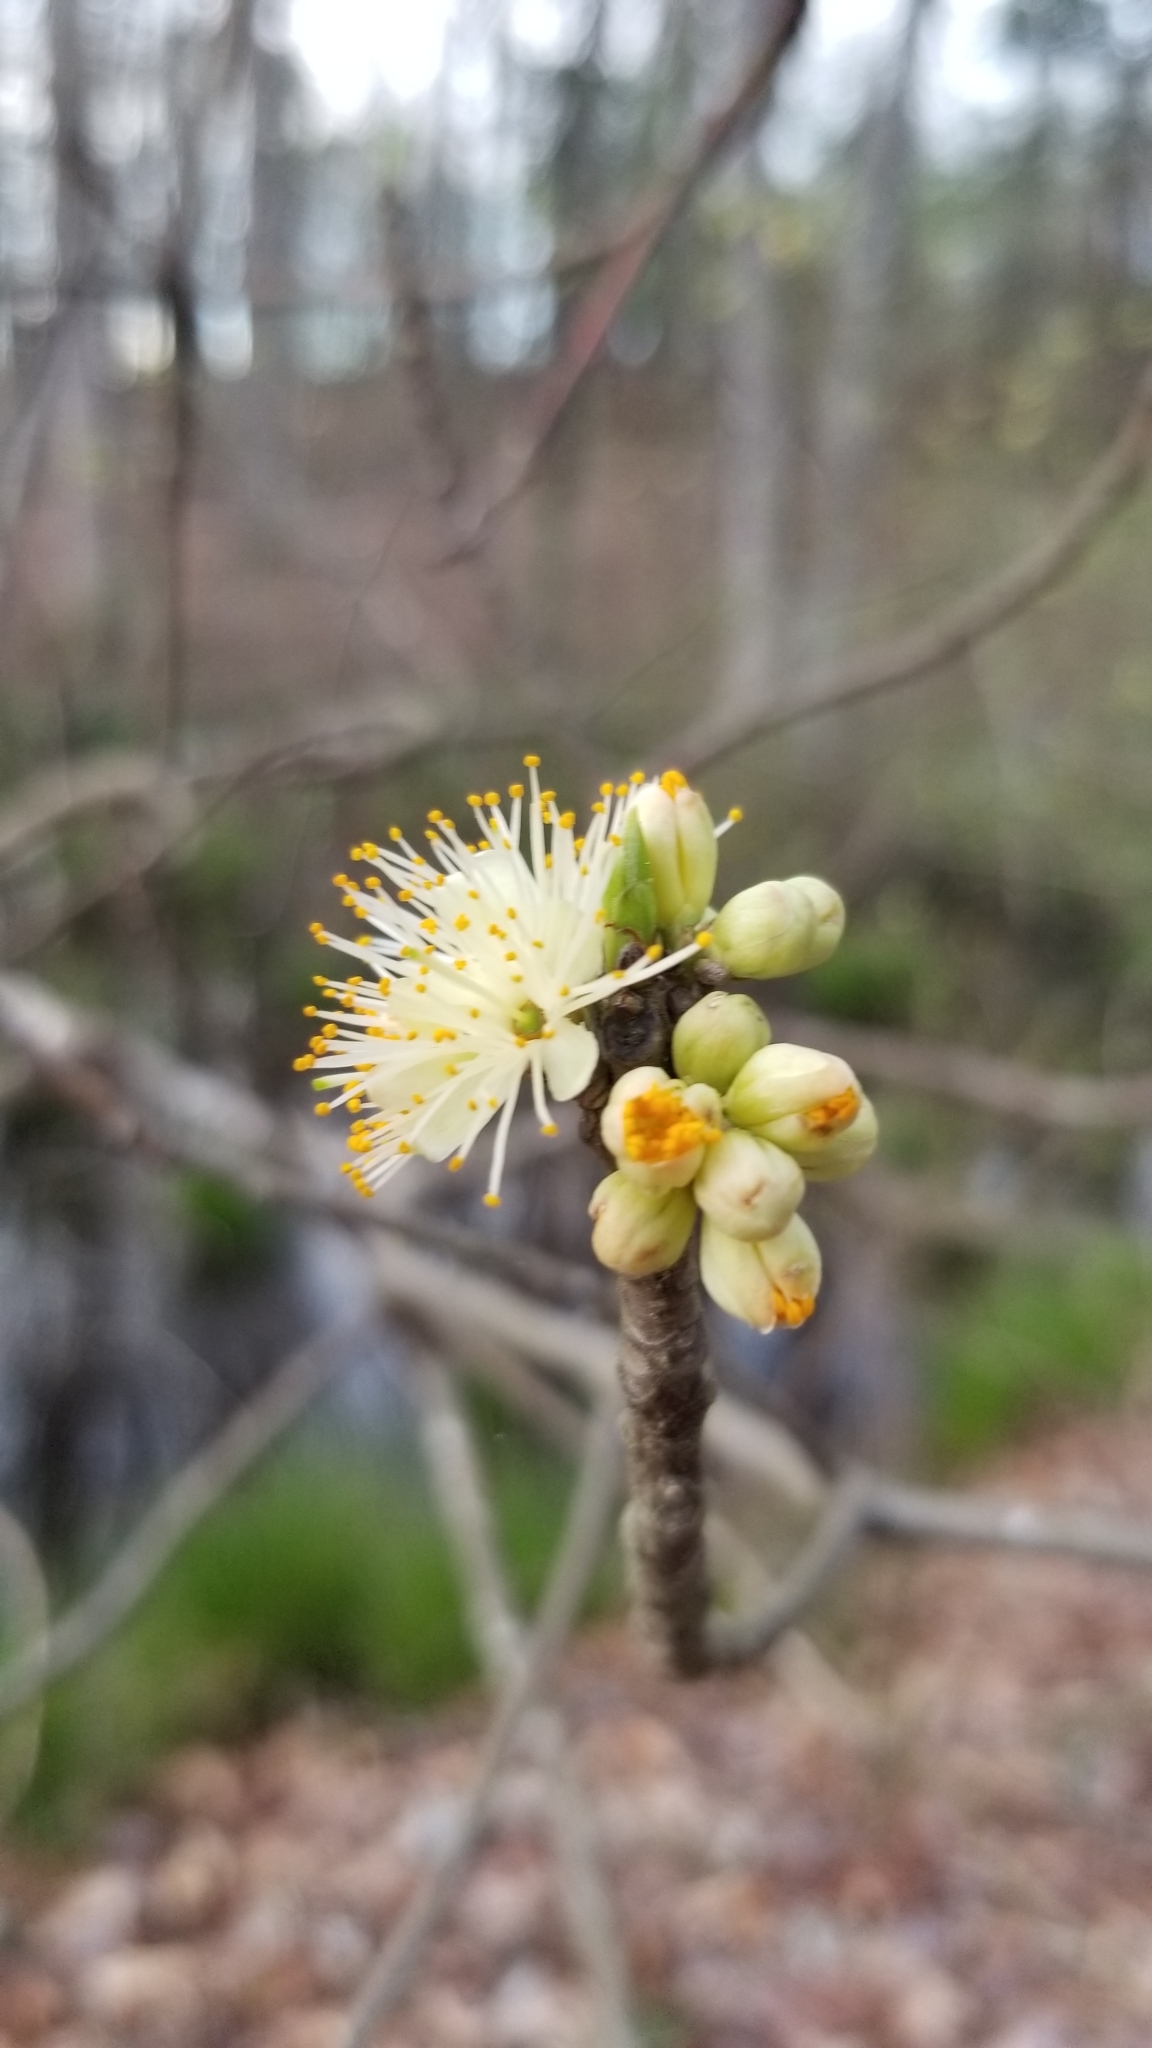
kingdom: Plantae
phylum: Tracheophyta
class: Magnoliopsida
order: Ericales
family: Symplocaceae
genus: Symplocos
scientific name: Symplocos tinctoria
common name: Horse-sugar
